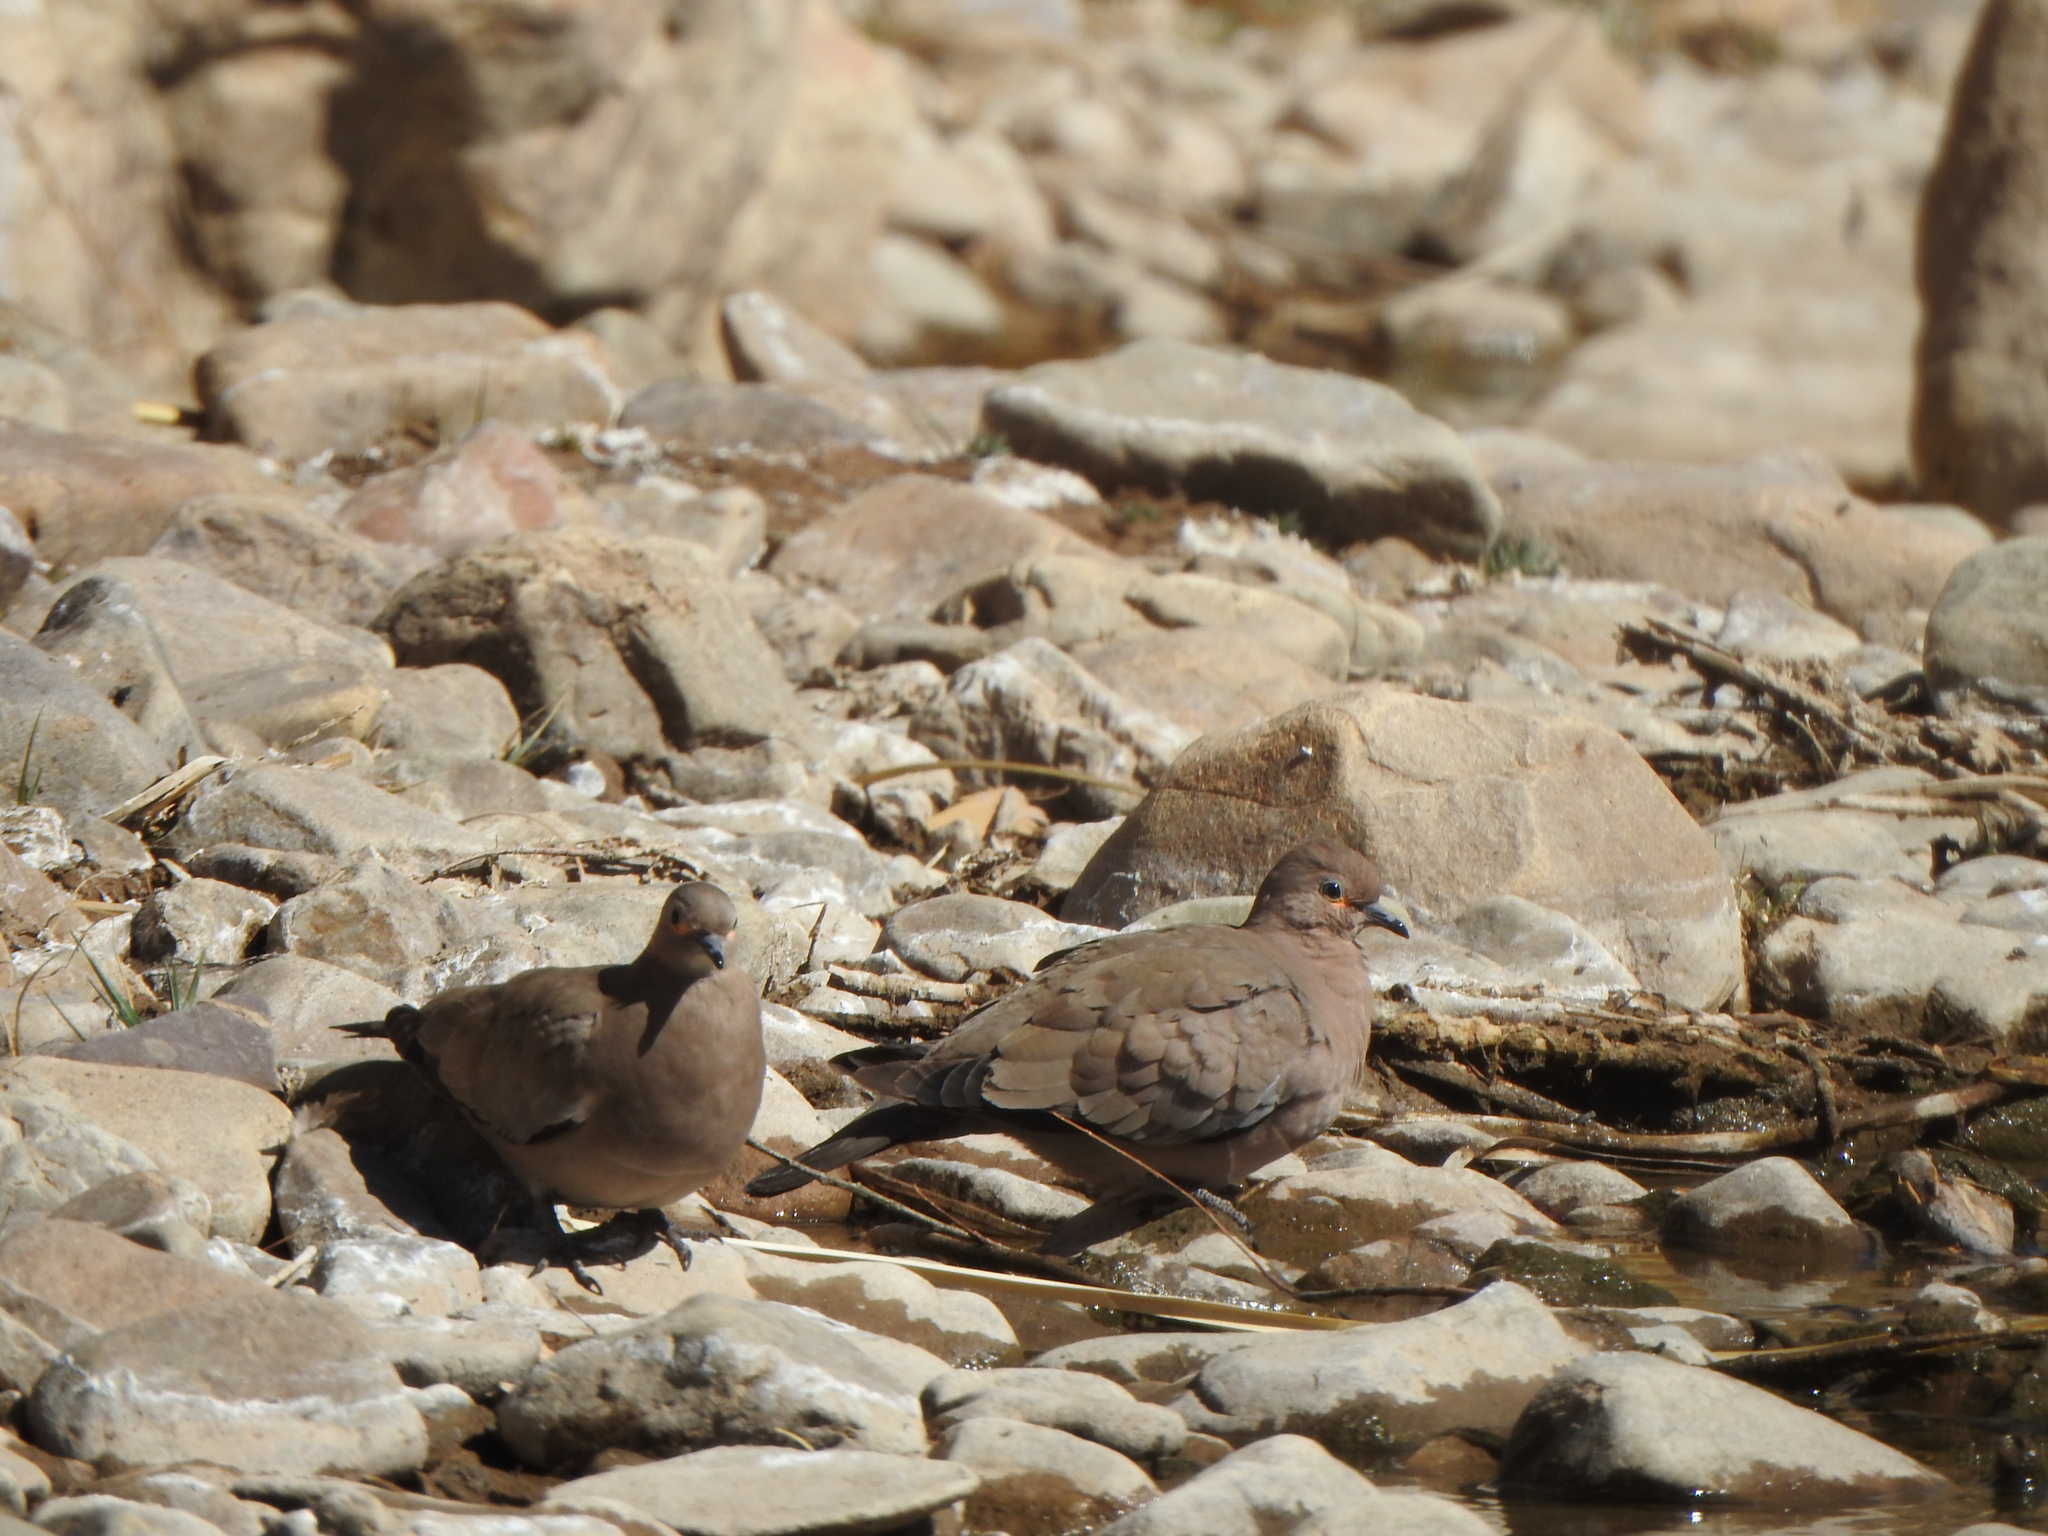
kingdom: Animalia
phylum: Chordata
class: Aves
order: Columbiformes
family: Columbidae
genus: Metriopelia
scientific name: Metriopelia melanoptera
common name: Black-winged ground dove
